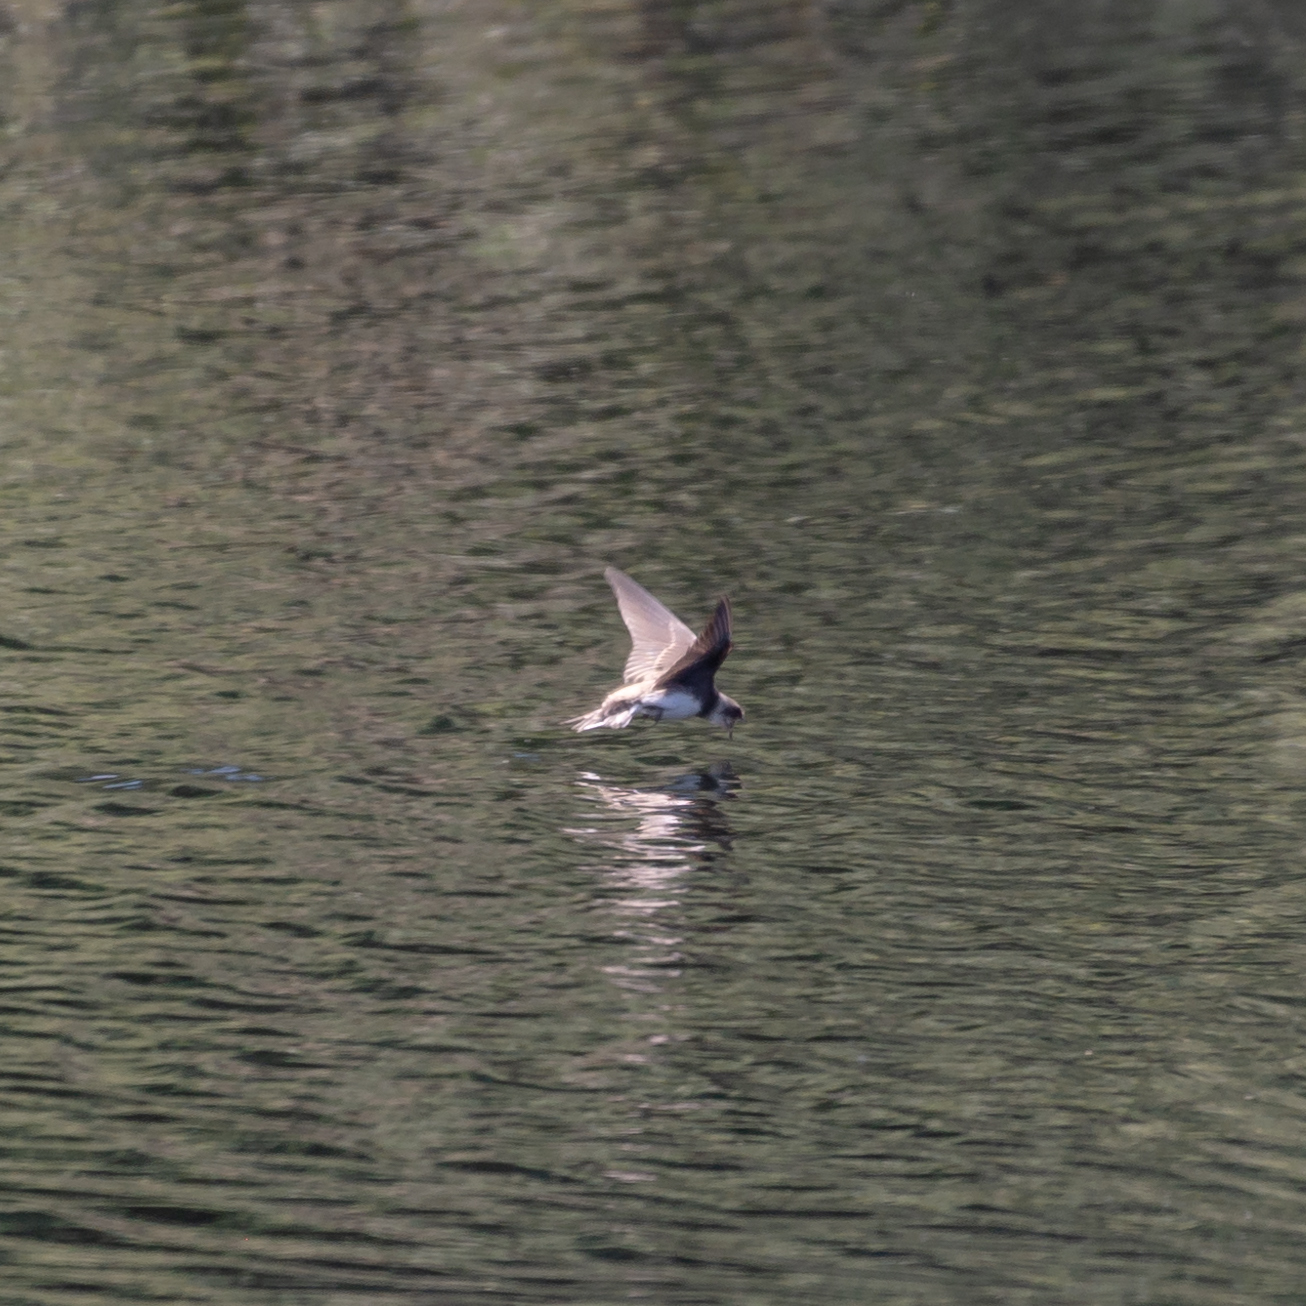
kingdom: Animalia
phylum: Chordata
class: Aves
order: Passeriformes
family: Hirundinidae
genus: Riparia
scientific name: Riparia riparia
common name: Sand martin
